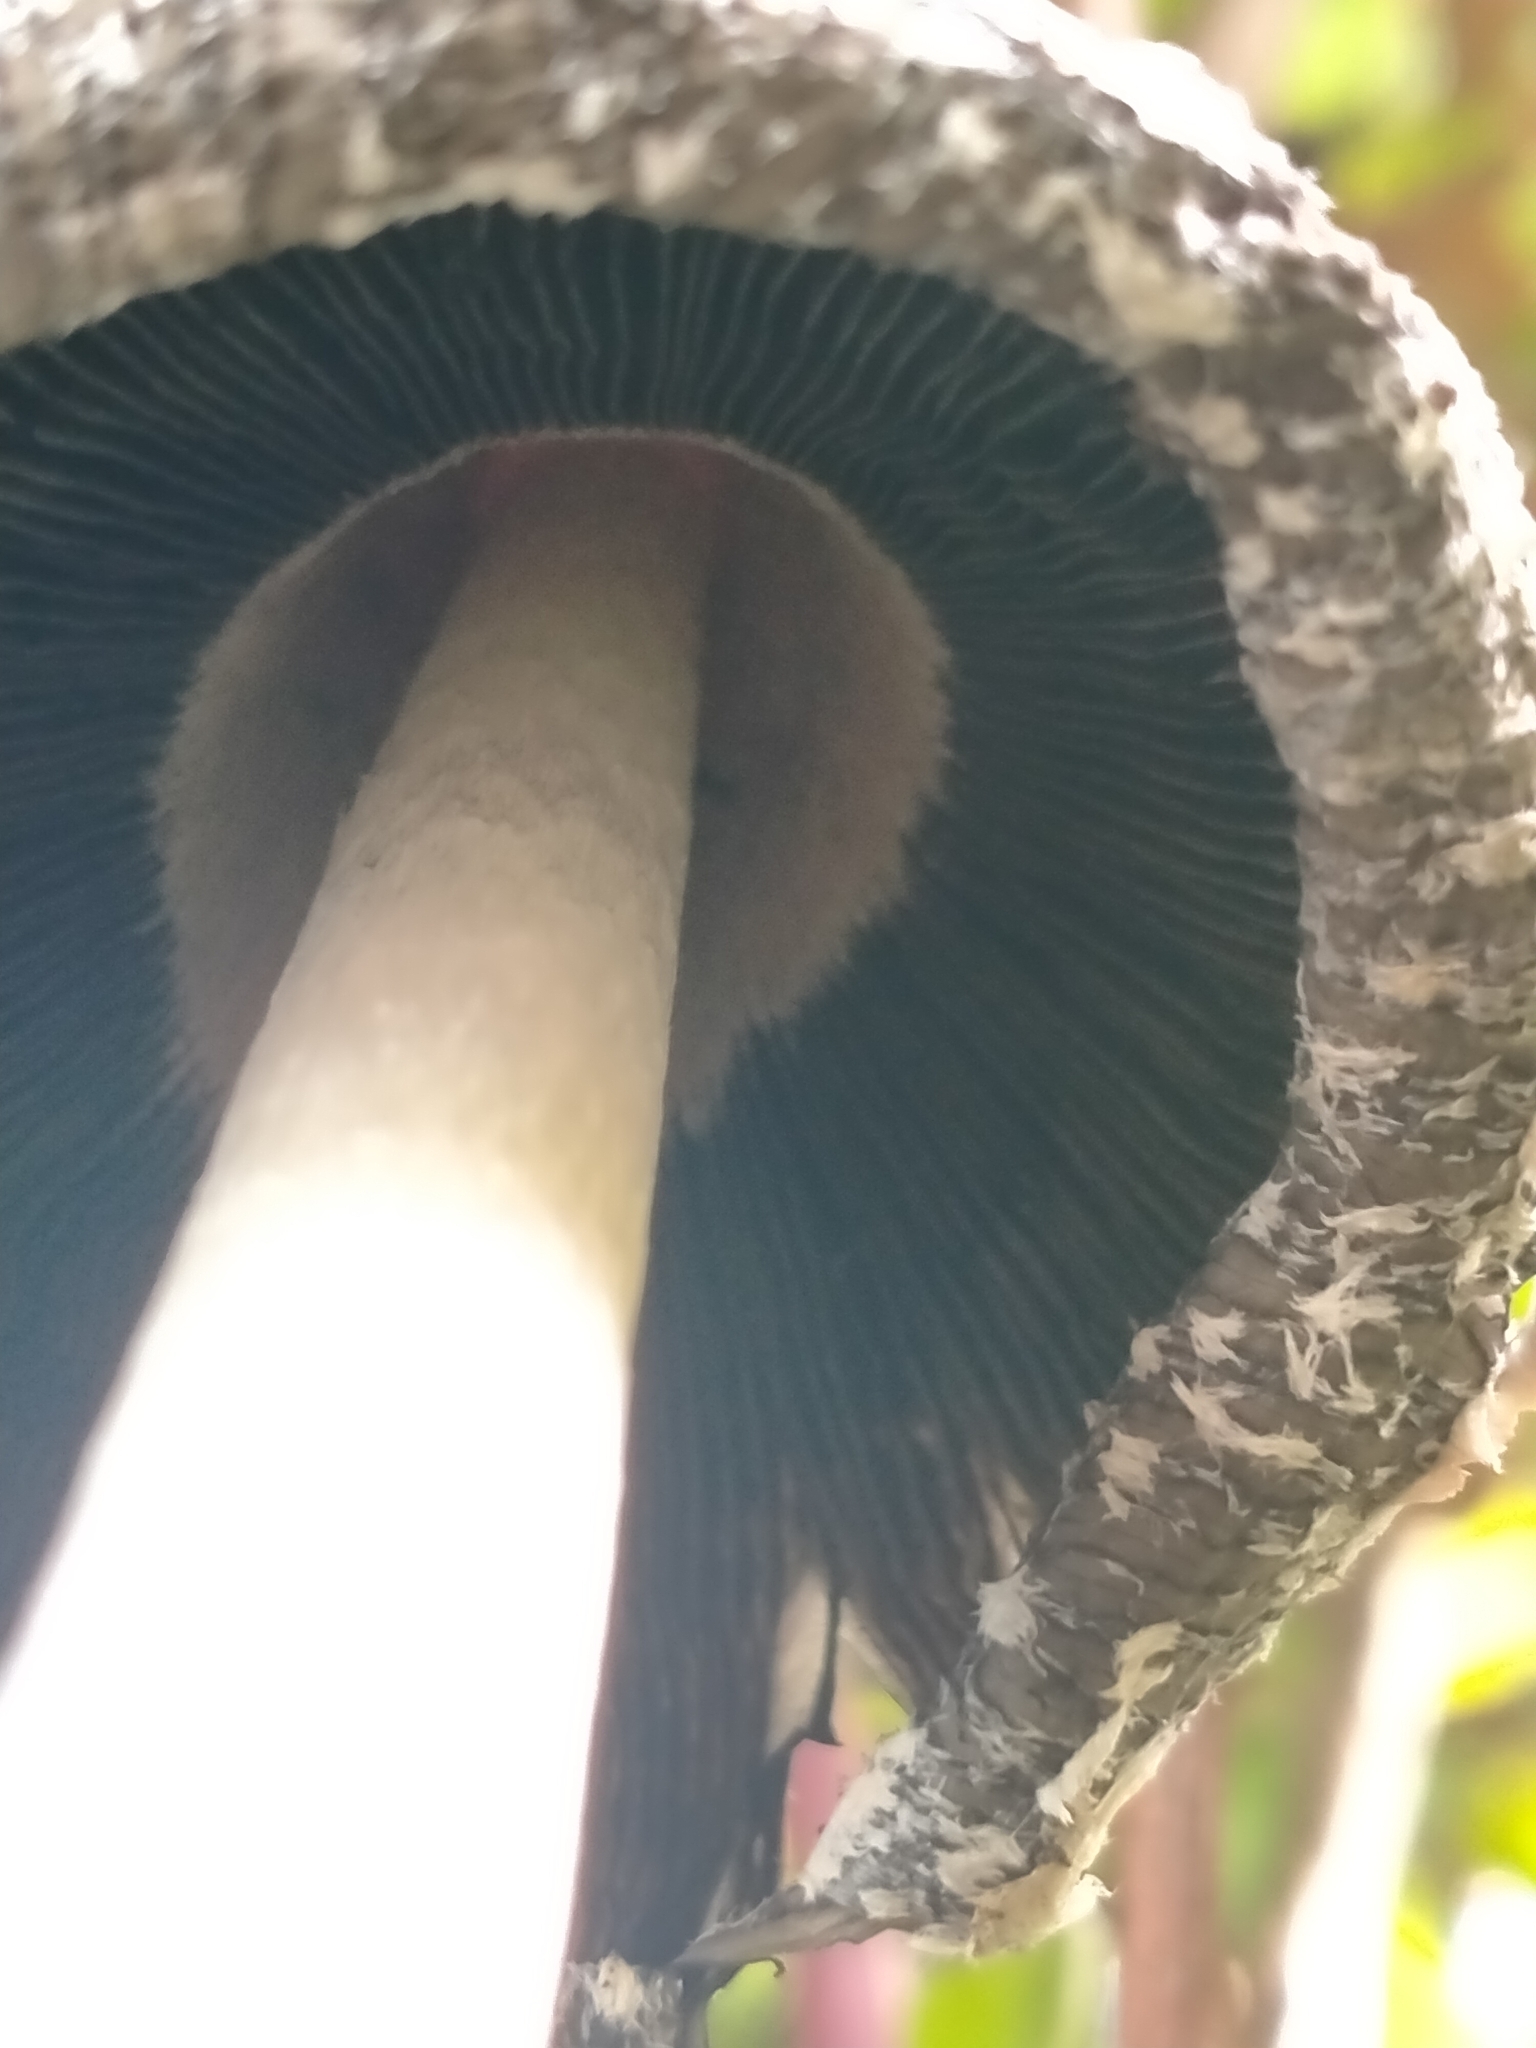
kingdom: Fungi
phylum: Basidiomycota
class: Agaricomycetes
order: Agaricales
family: Agaricaceae
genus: Coprinus
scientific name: Coprinus comatus
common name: Lawyer's wig
